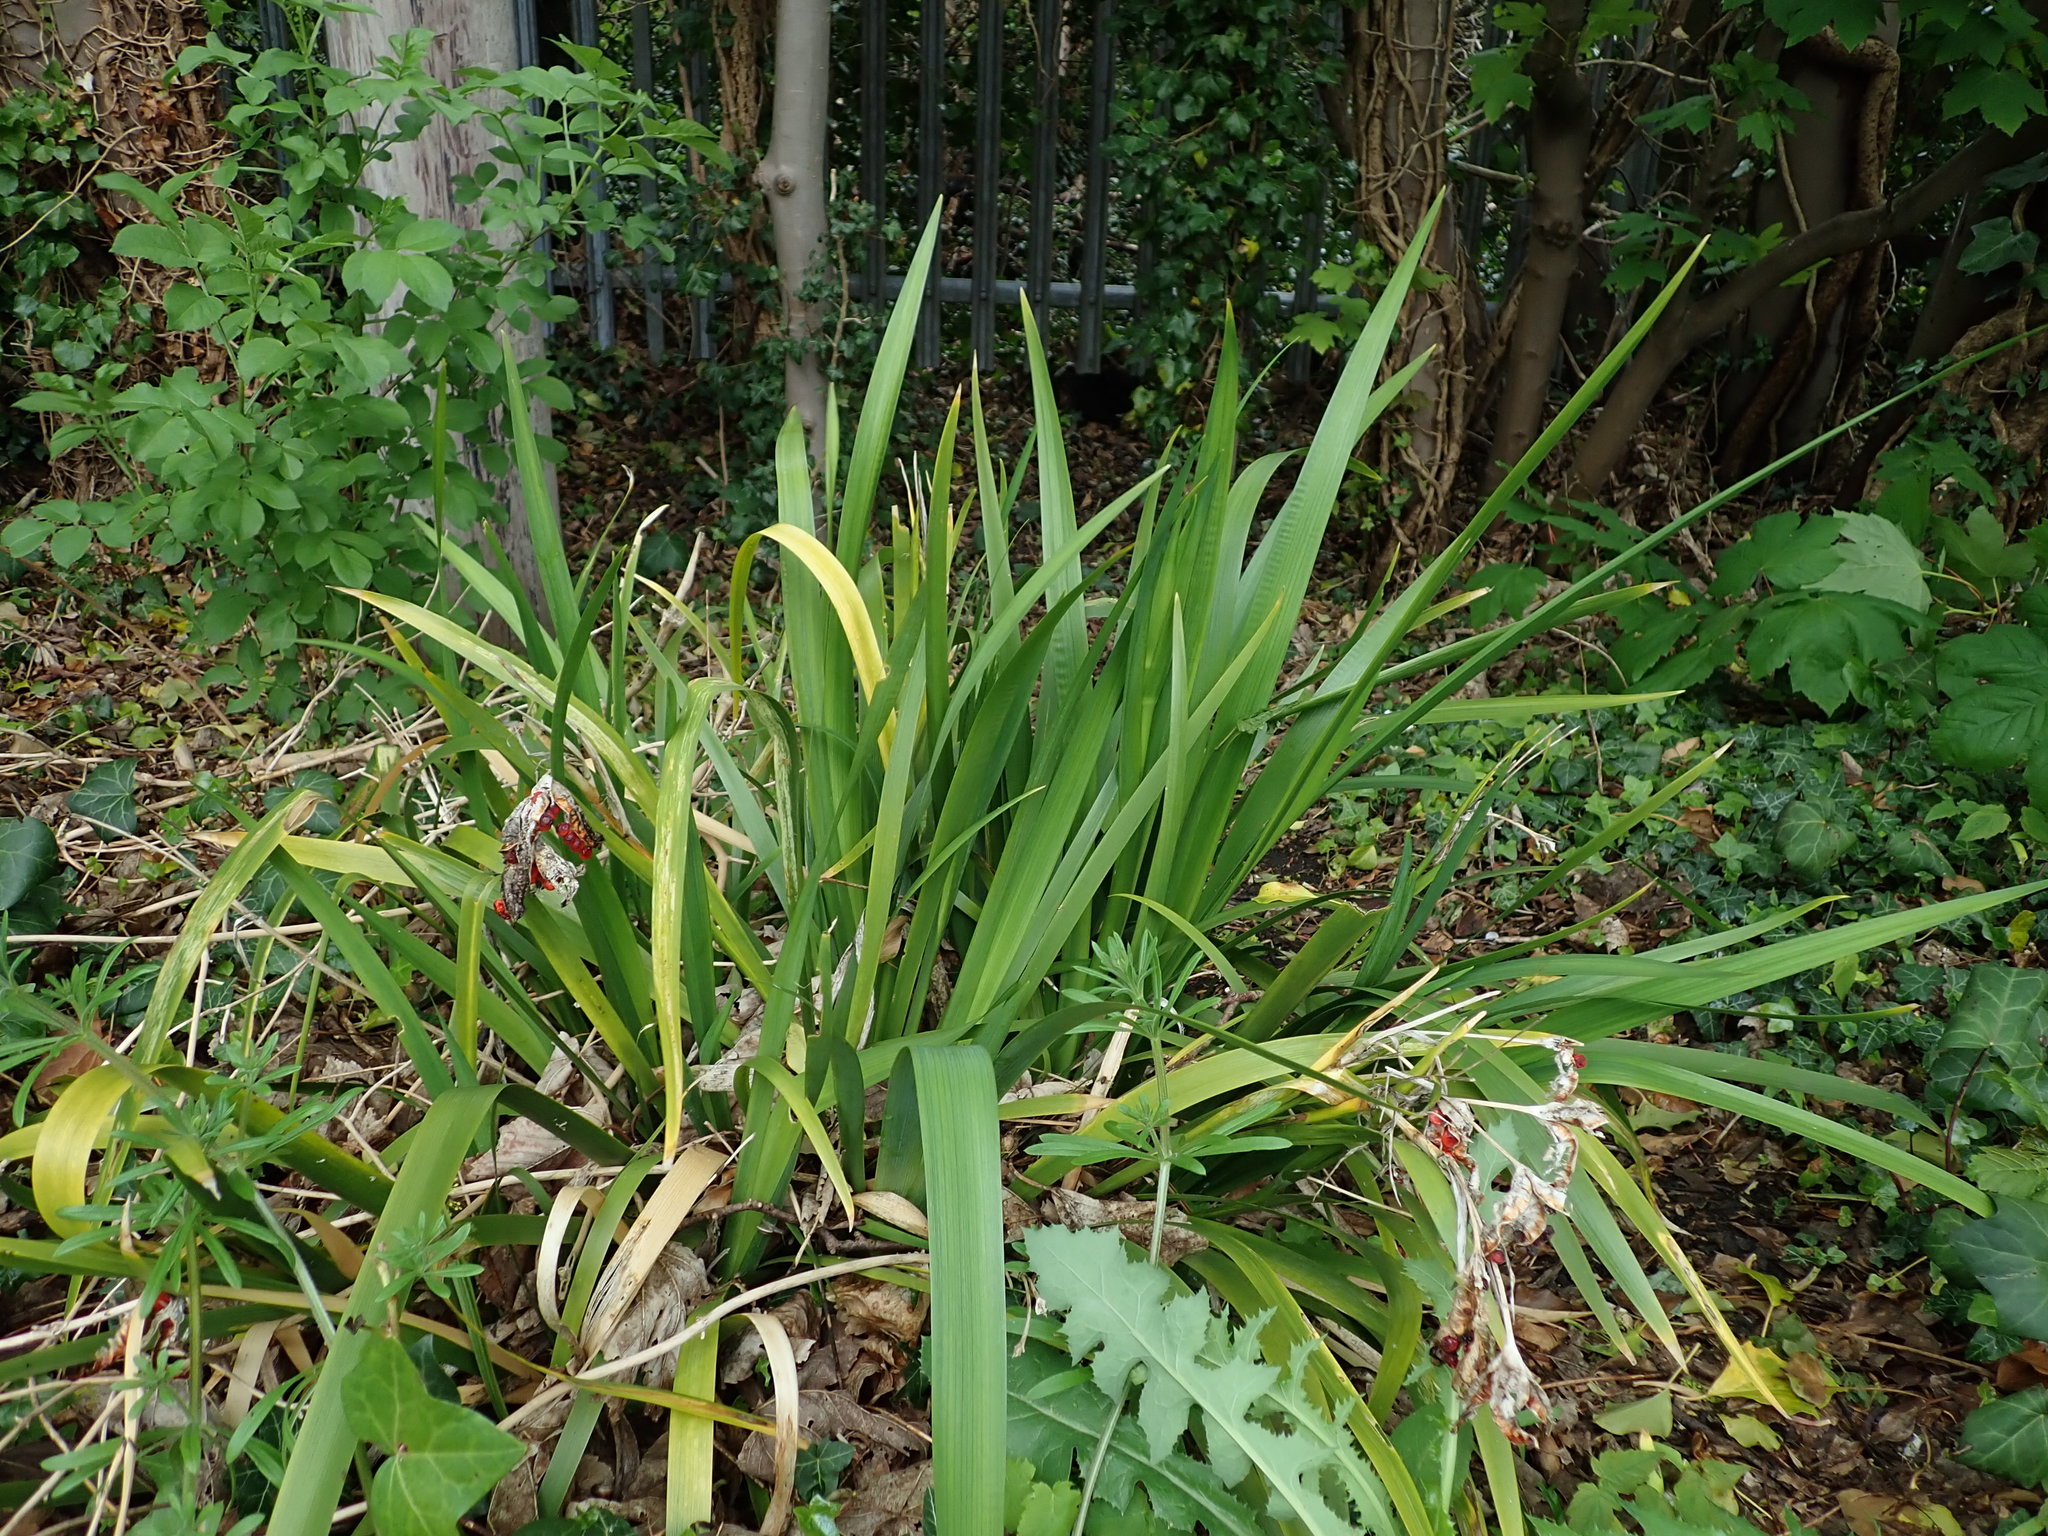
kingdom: Plantae
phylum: Tracheophyta
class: Liliopsida
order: Asparagales
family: Iridaceae
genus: Iris
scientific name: Iris foetidissima
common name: Stinking iris
